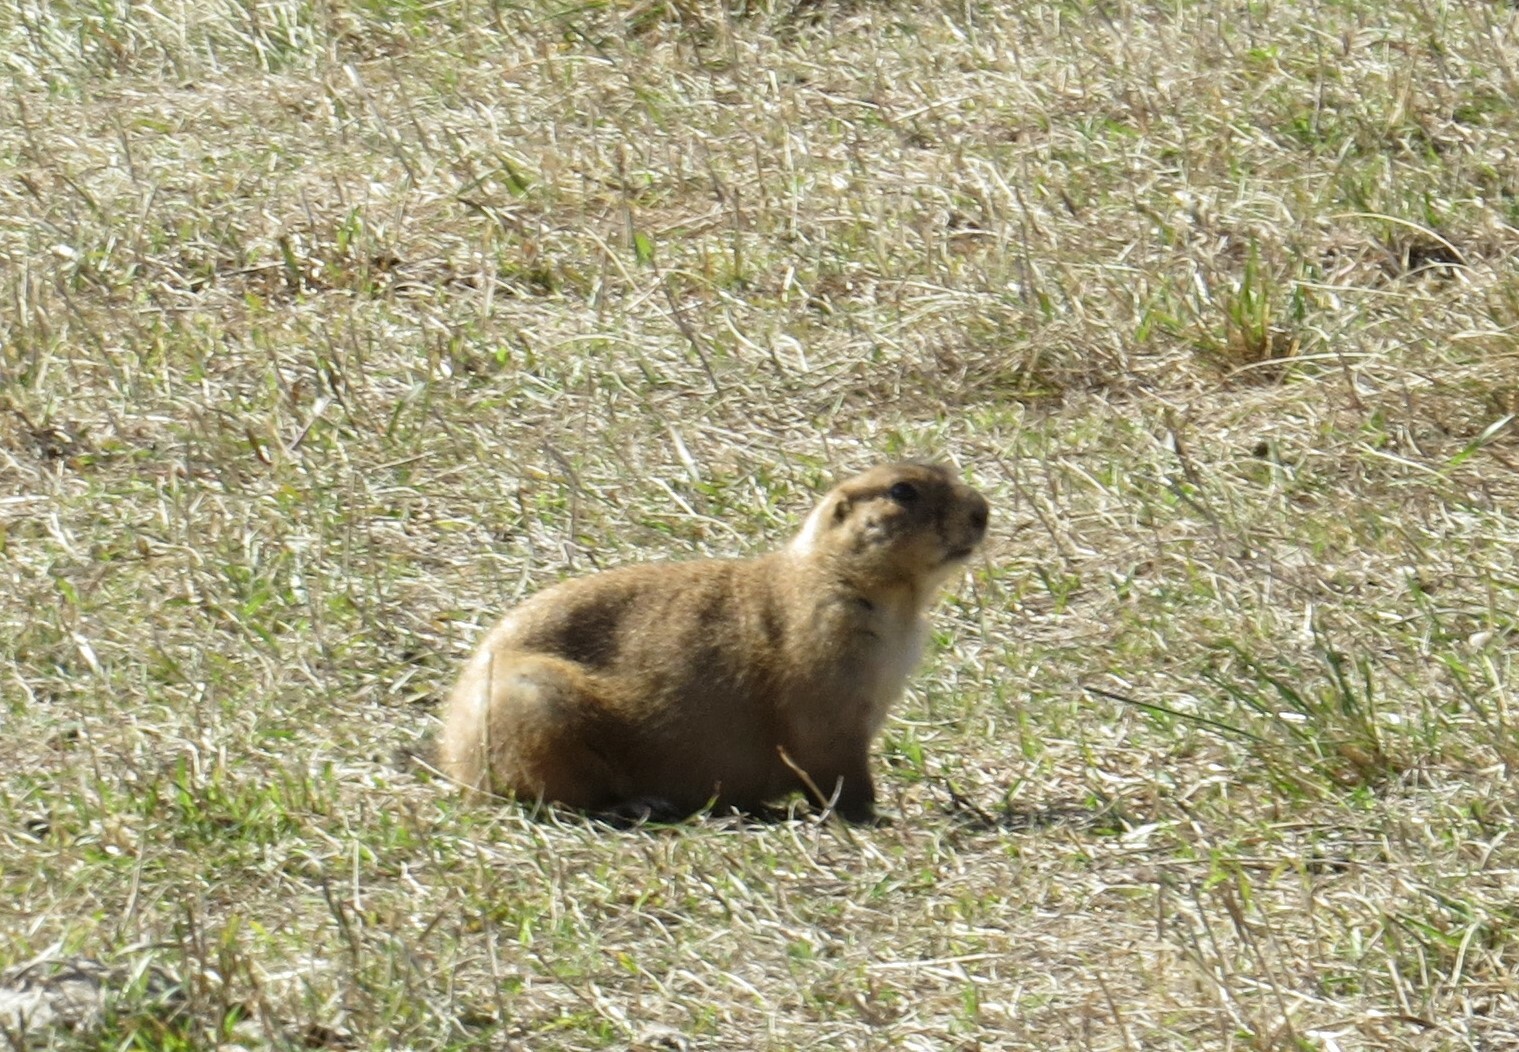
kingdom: Animalia
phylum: Chordata
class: Mammalia
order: Rodentia
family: Sciuridae
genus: Cynomys
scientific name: Cynomys ludovicianus
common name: Black-tailed prairie dog
